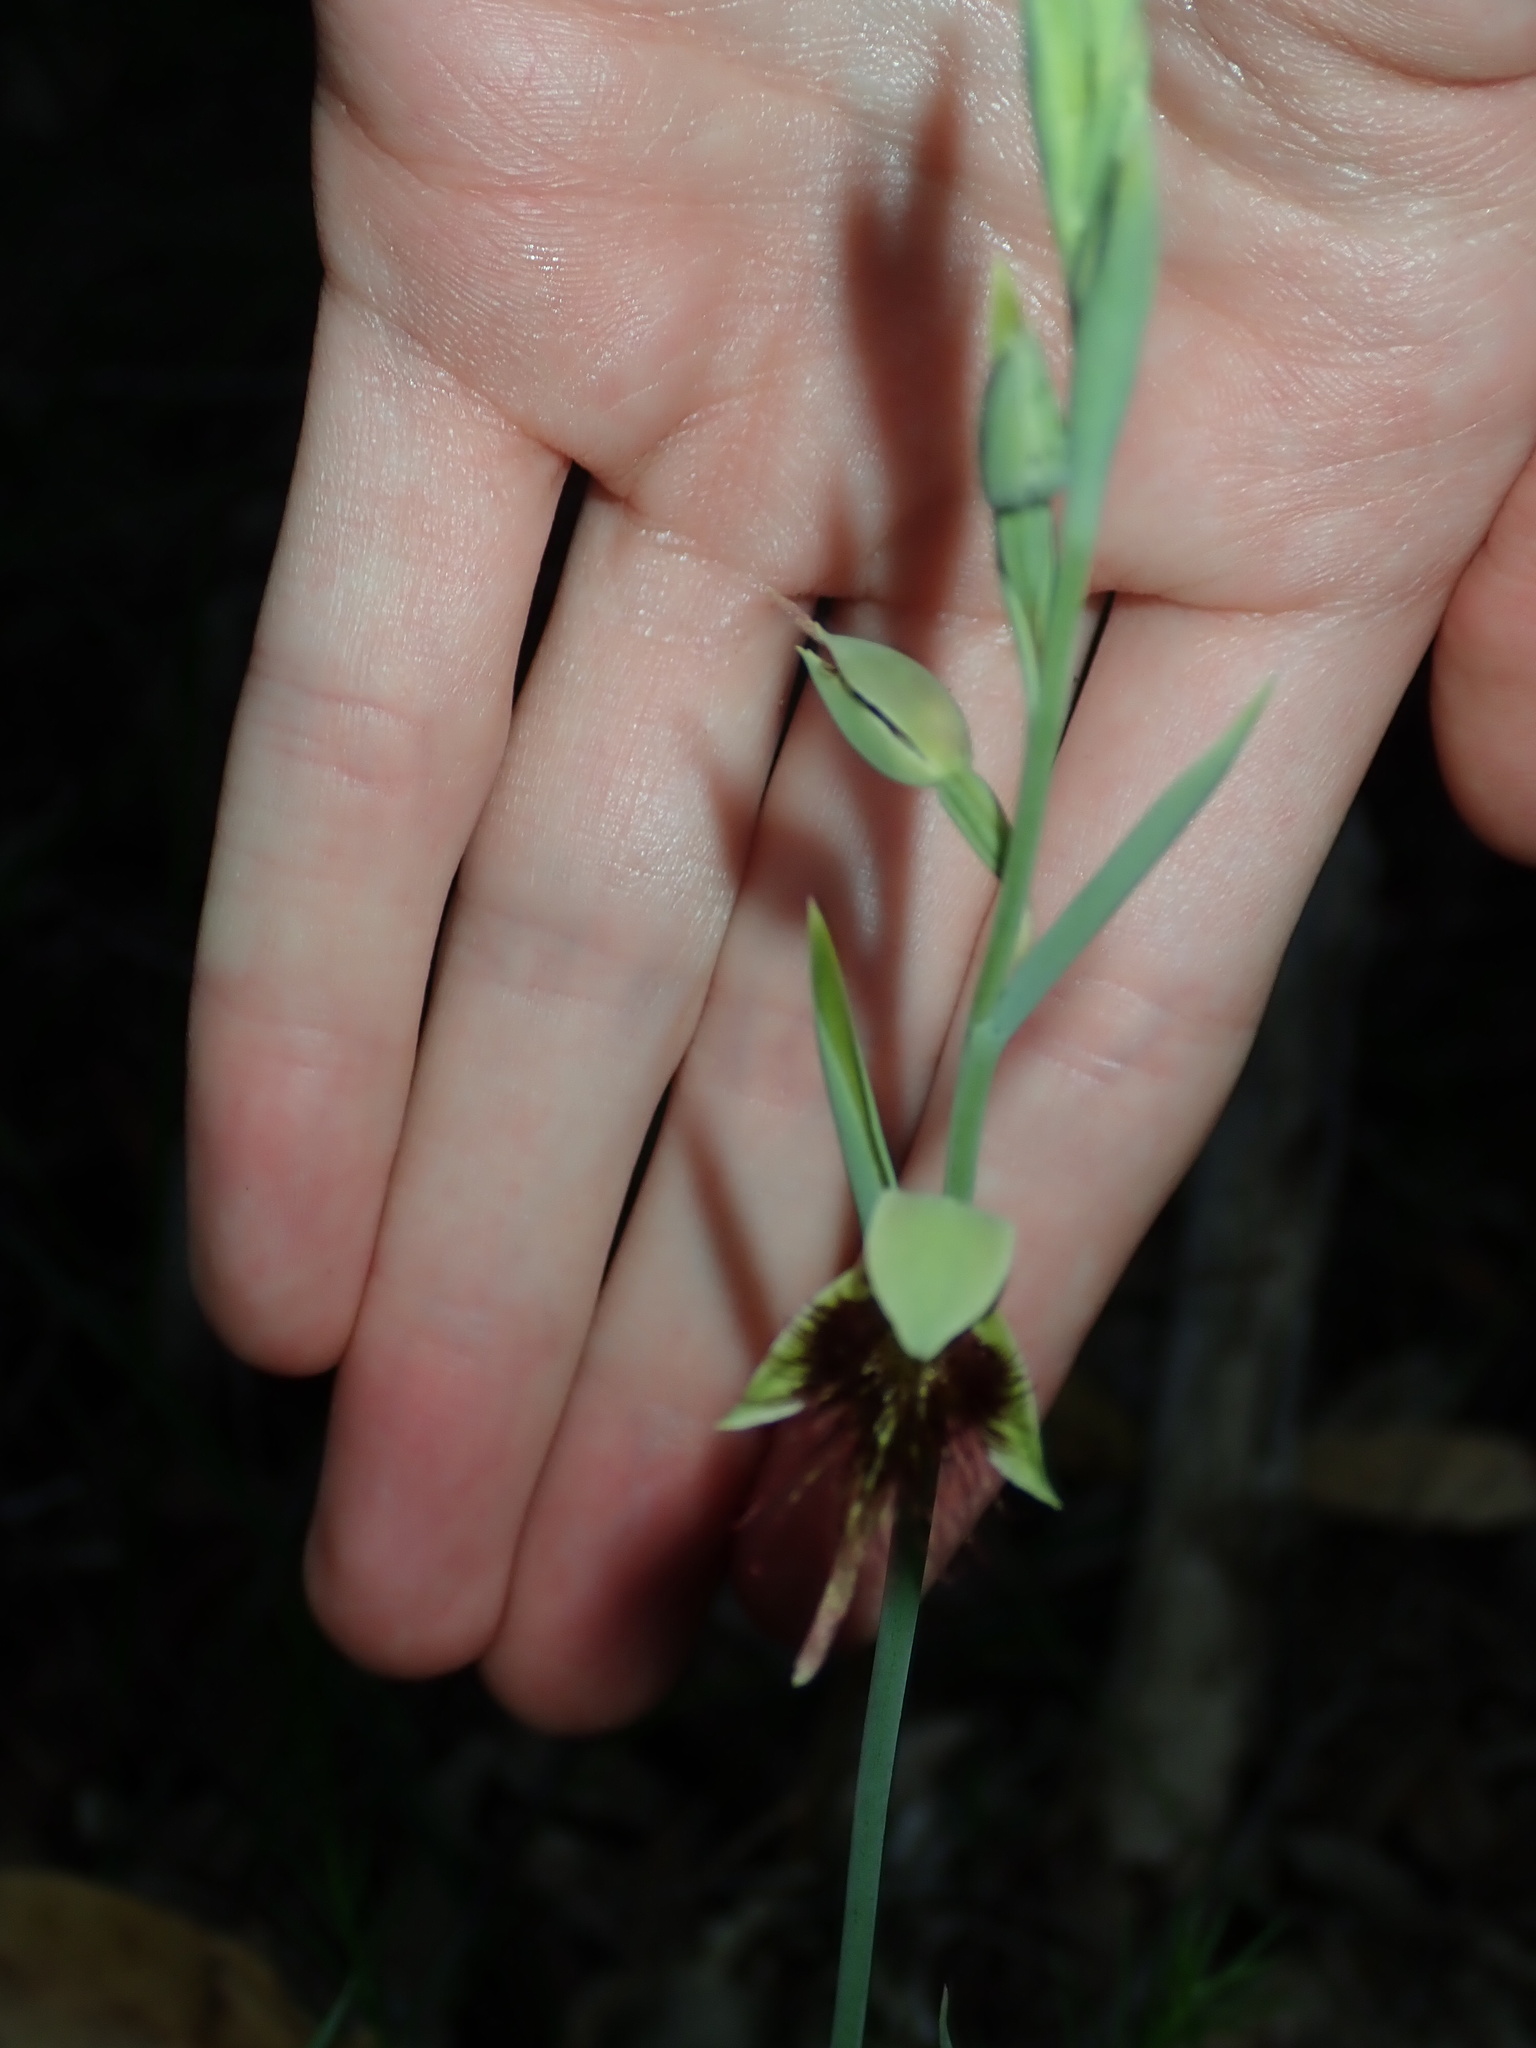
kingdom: Plantae
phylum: Tracheophyta
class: Liliopsida
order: Asparagales
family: Orchidaceae
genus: Calochilus
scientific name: Calochilus paludosus
